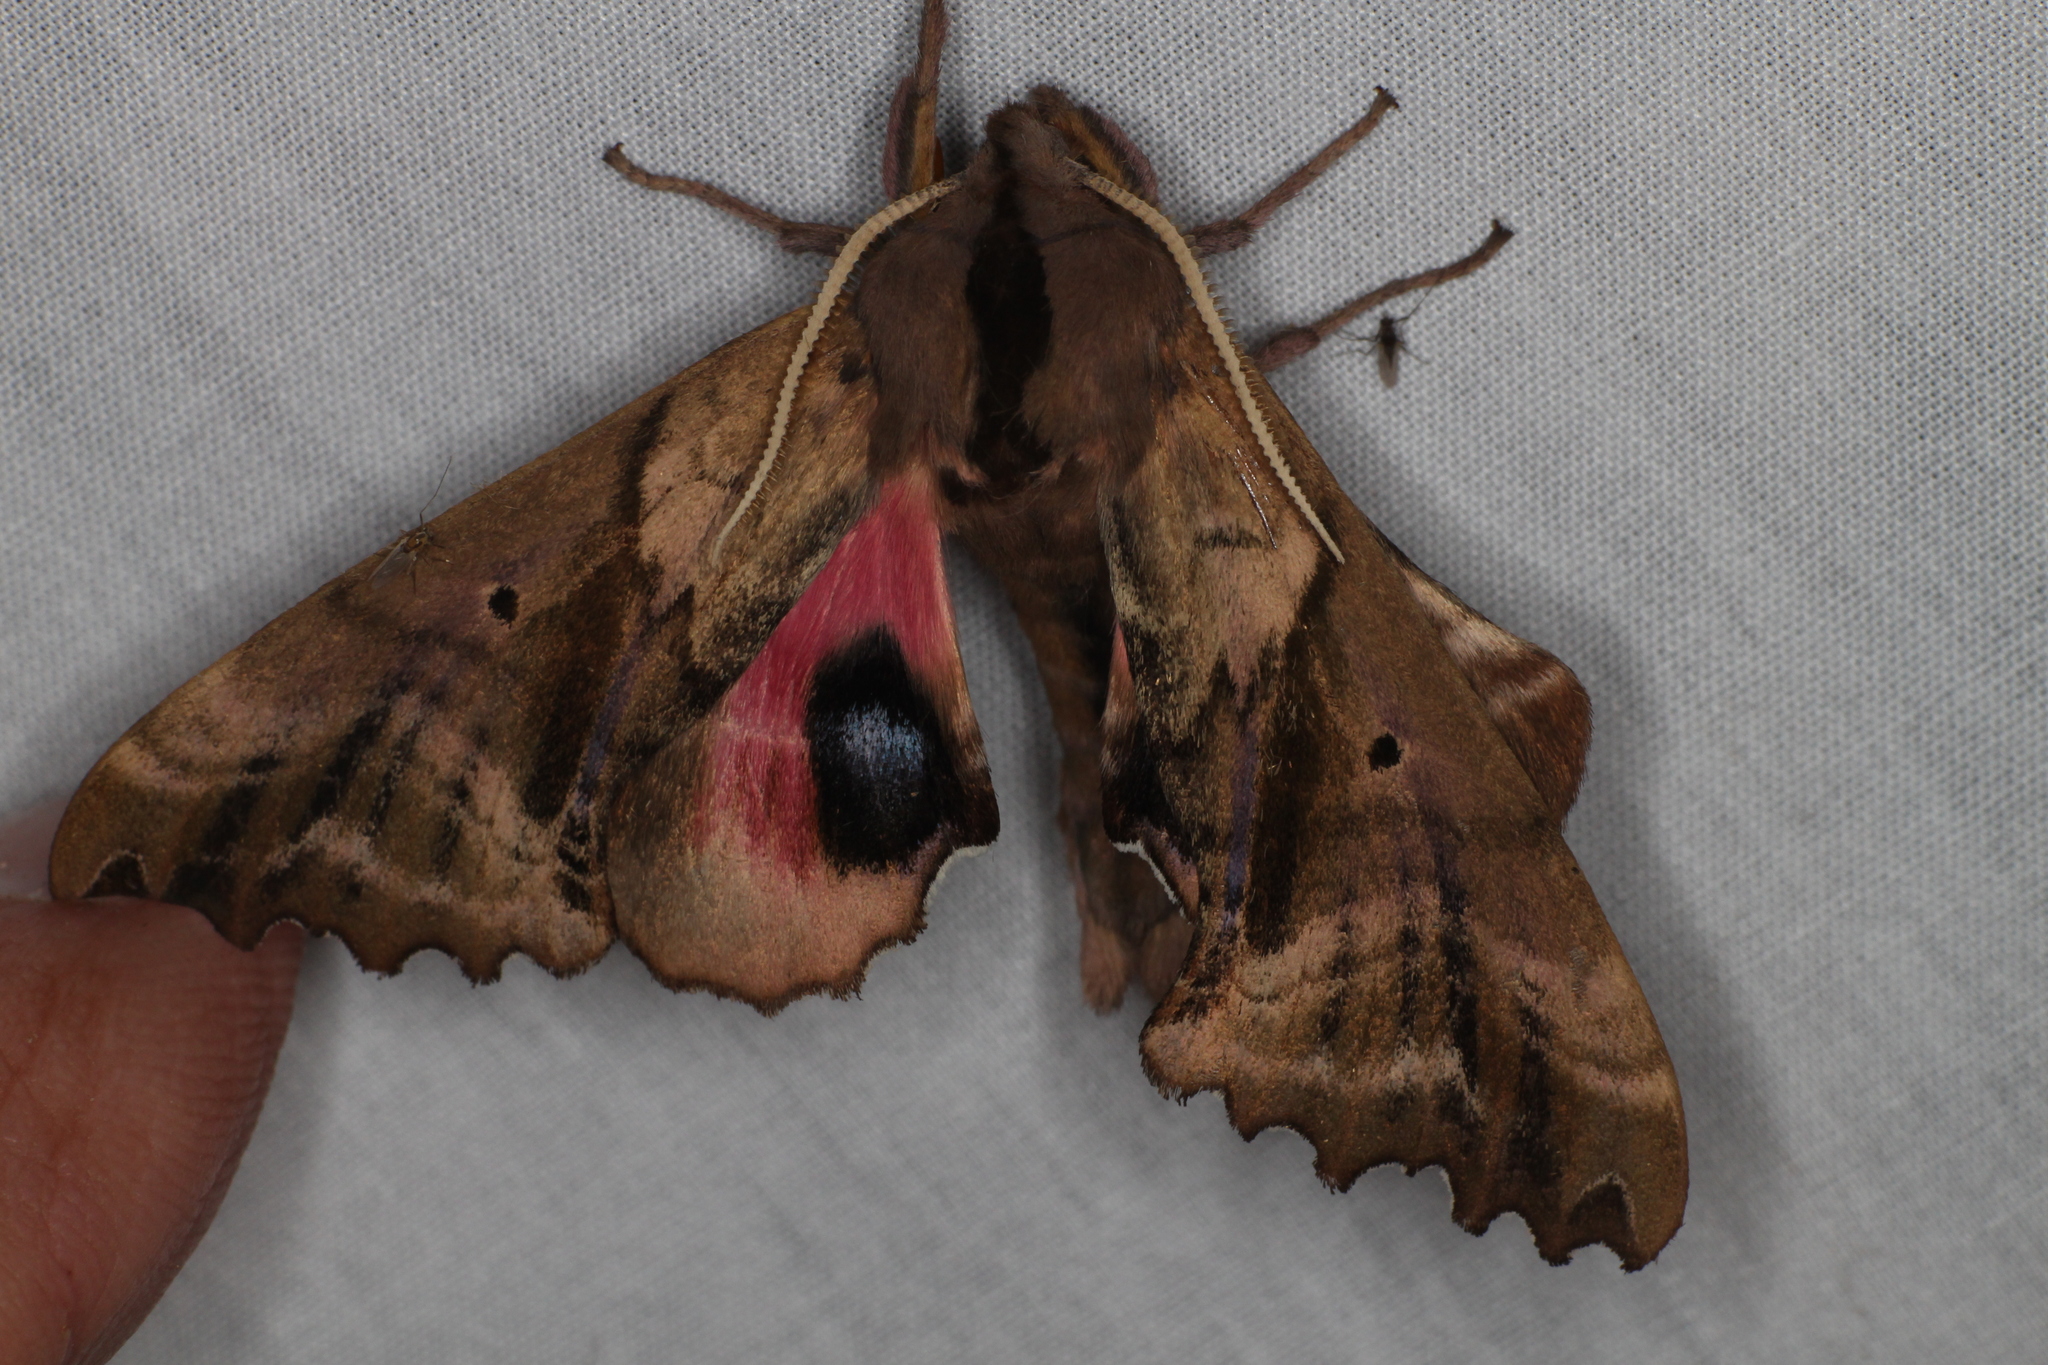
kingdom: Animalia
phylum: Arthropoda
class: Insecta
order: Lepidoptera
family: Sphingidae
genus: Paonias
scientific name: Paonias excaecata
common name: Blind-eyed sphinx
